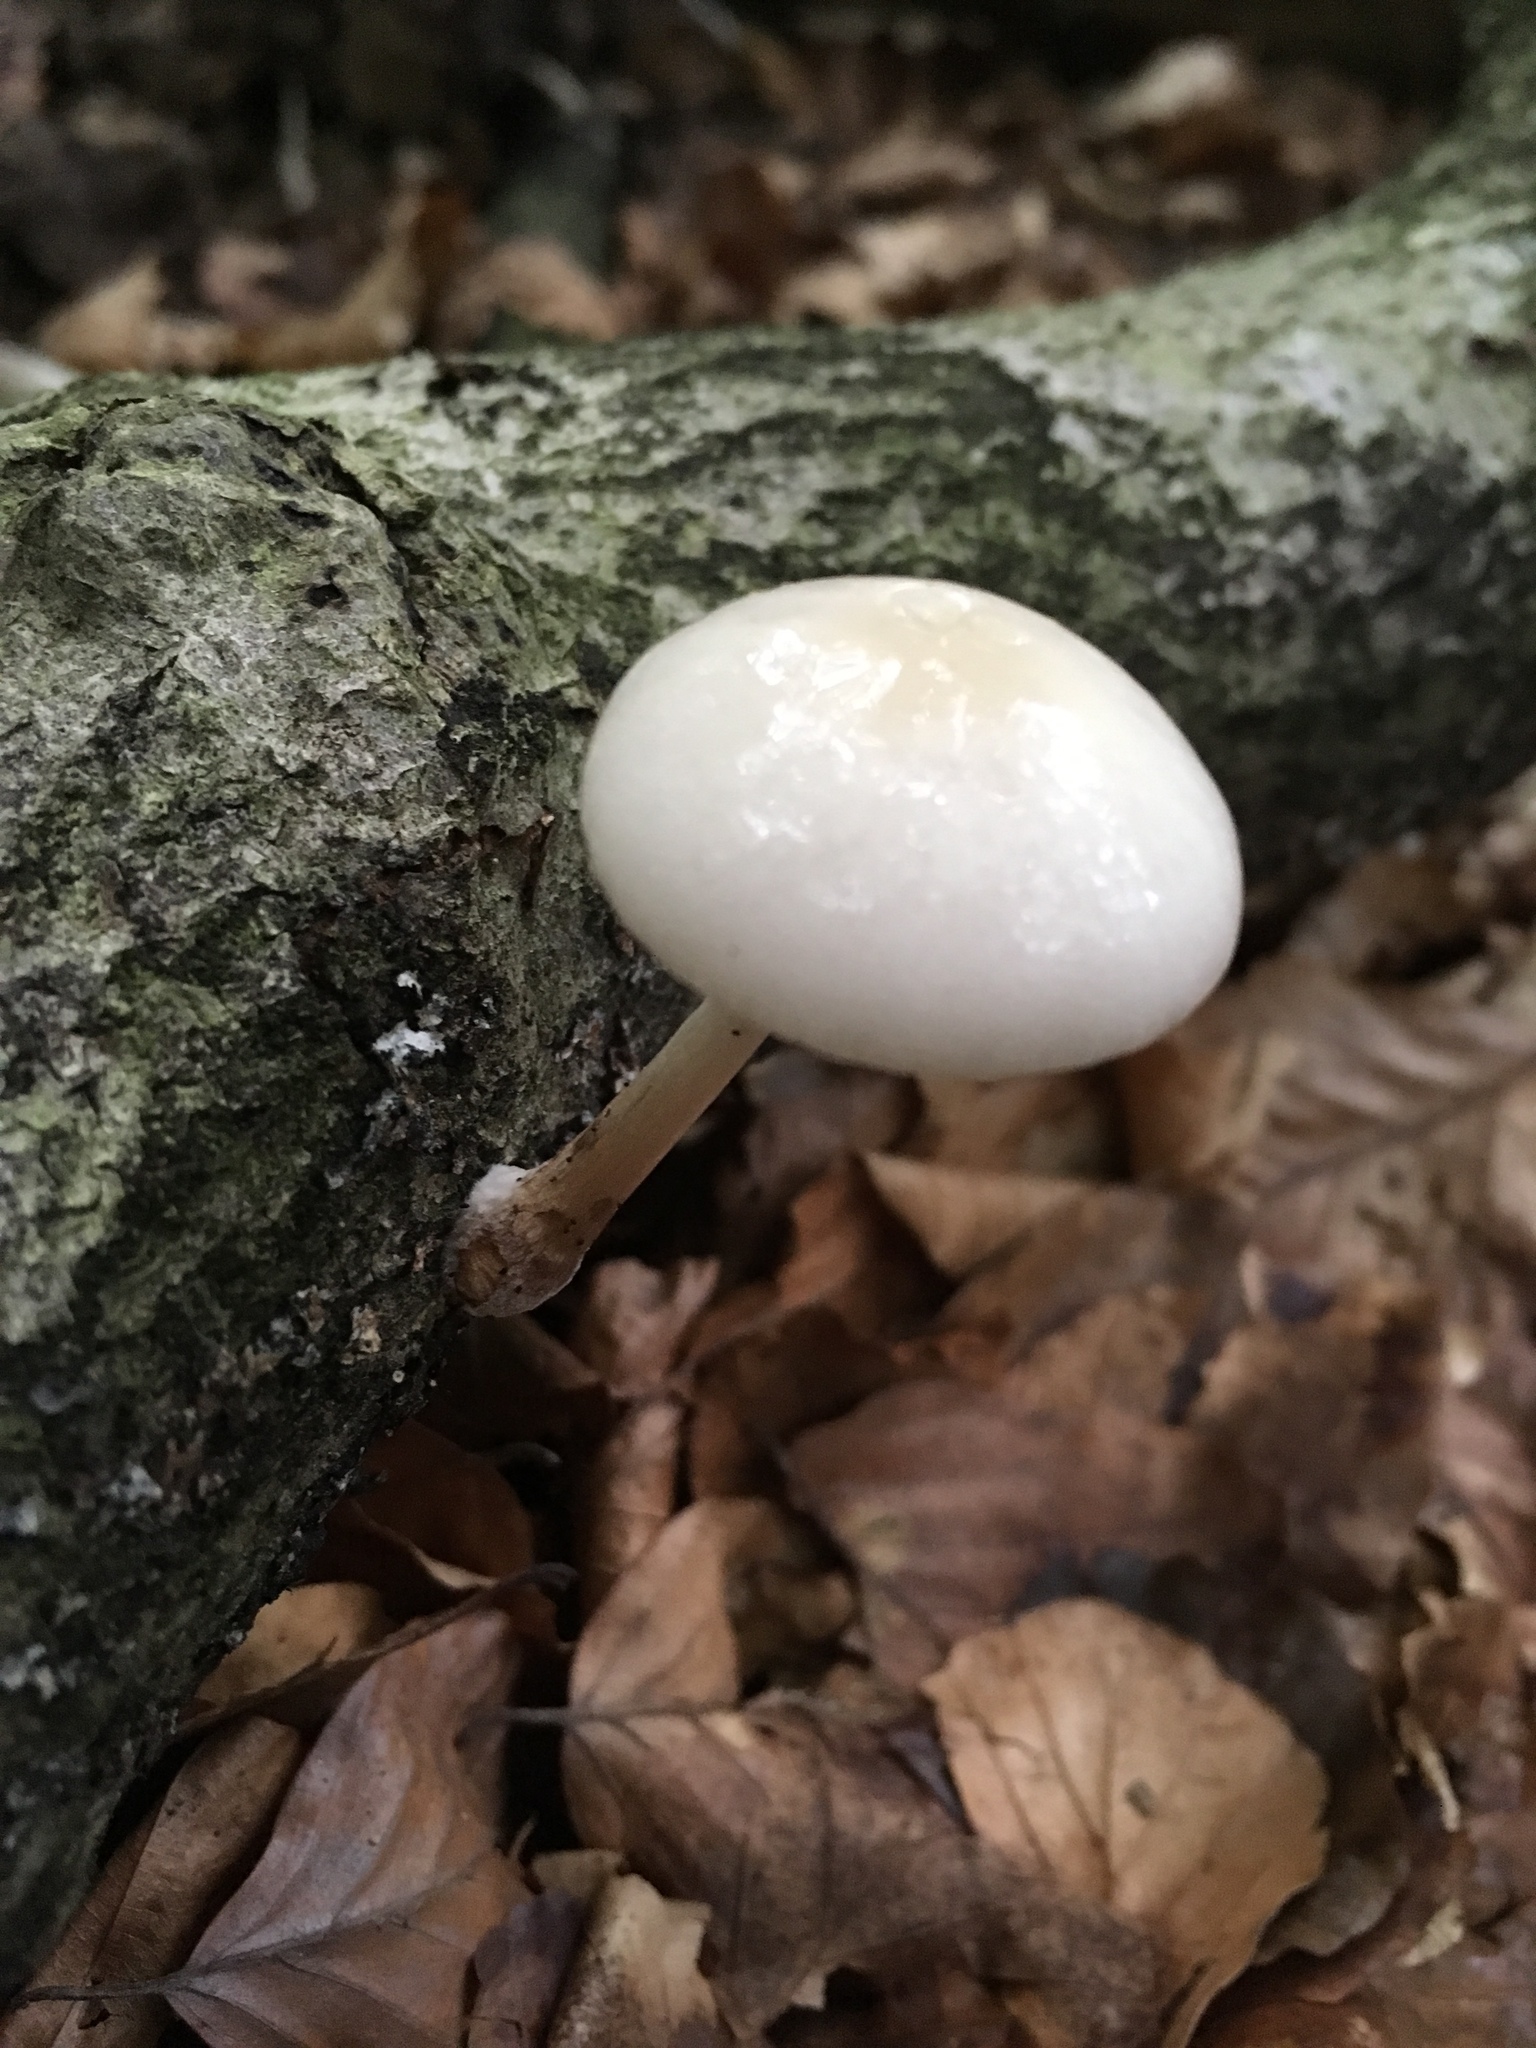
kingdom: Fungi
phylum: Basidiomycota
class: Agaricomycetes
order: Agaricales
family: Physalacriaceae
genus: Mucidula
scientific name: Mucidula mucida
